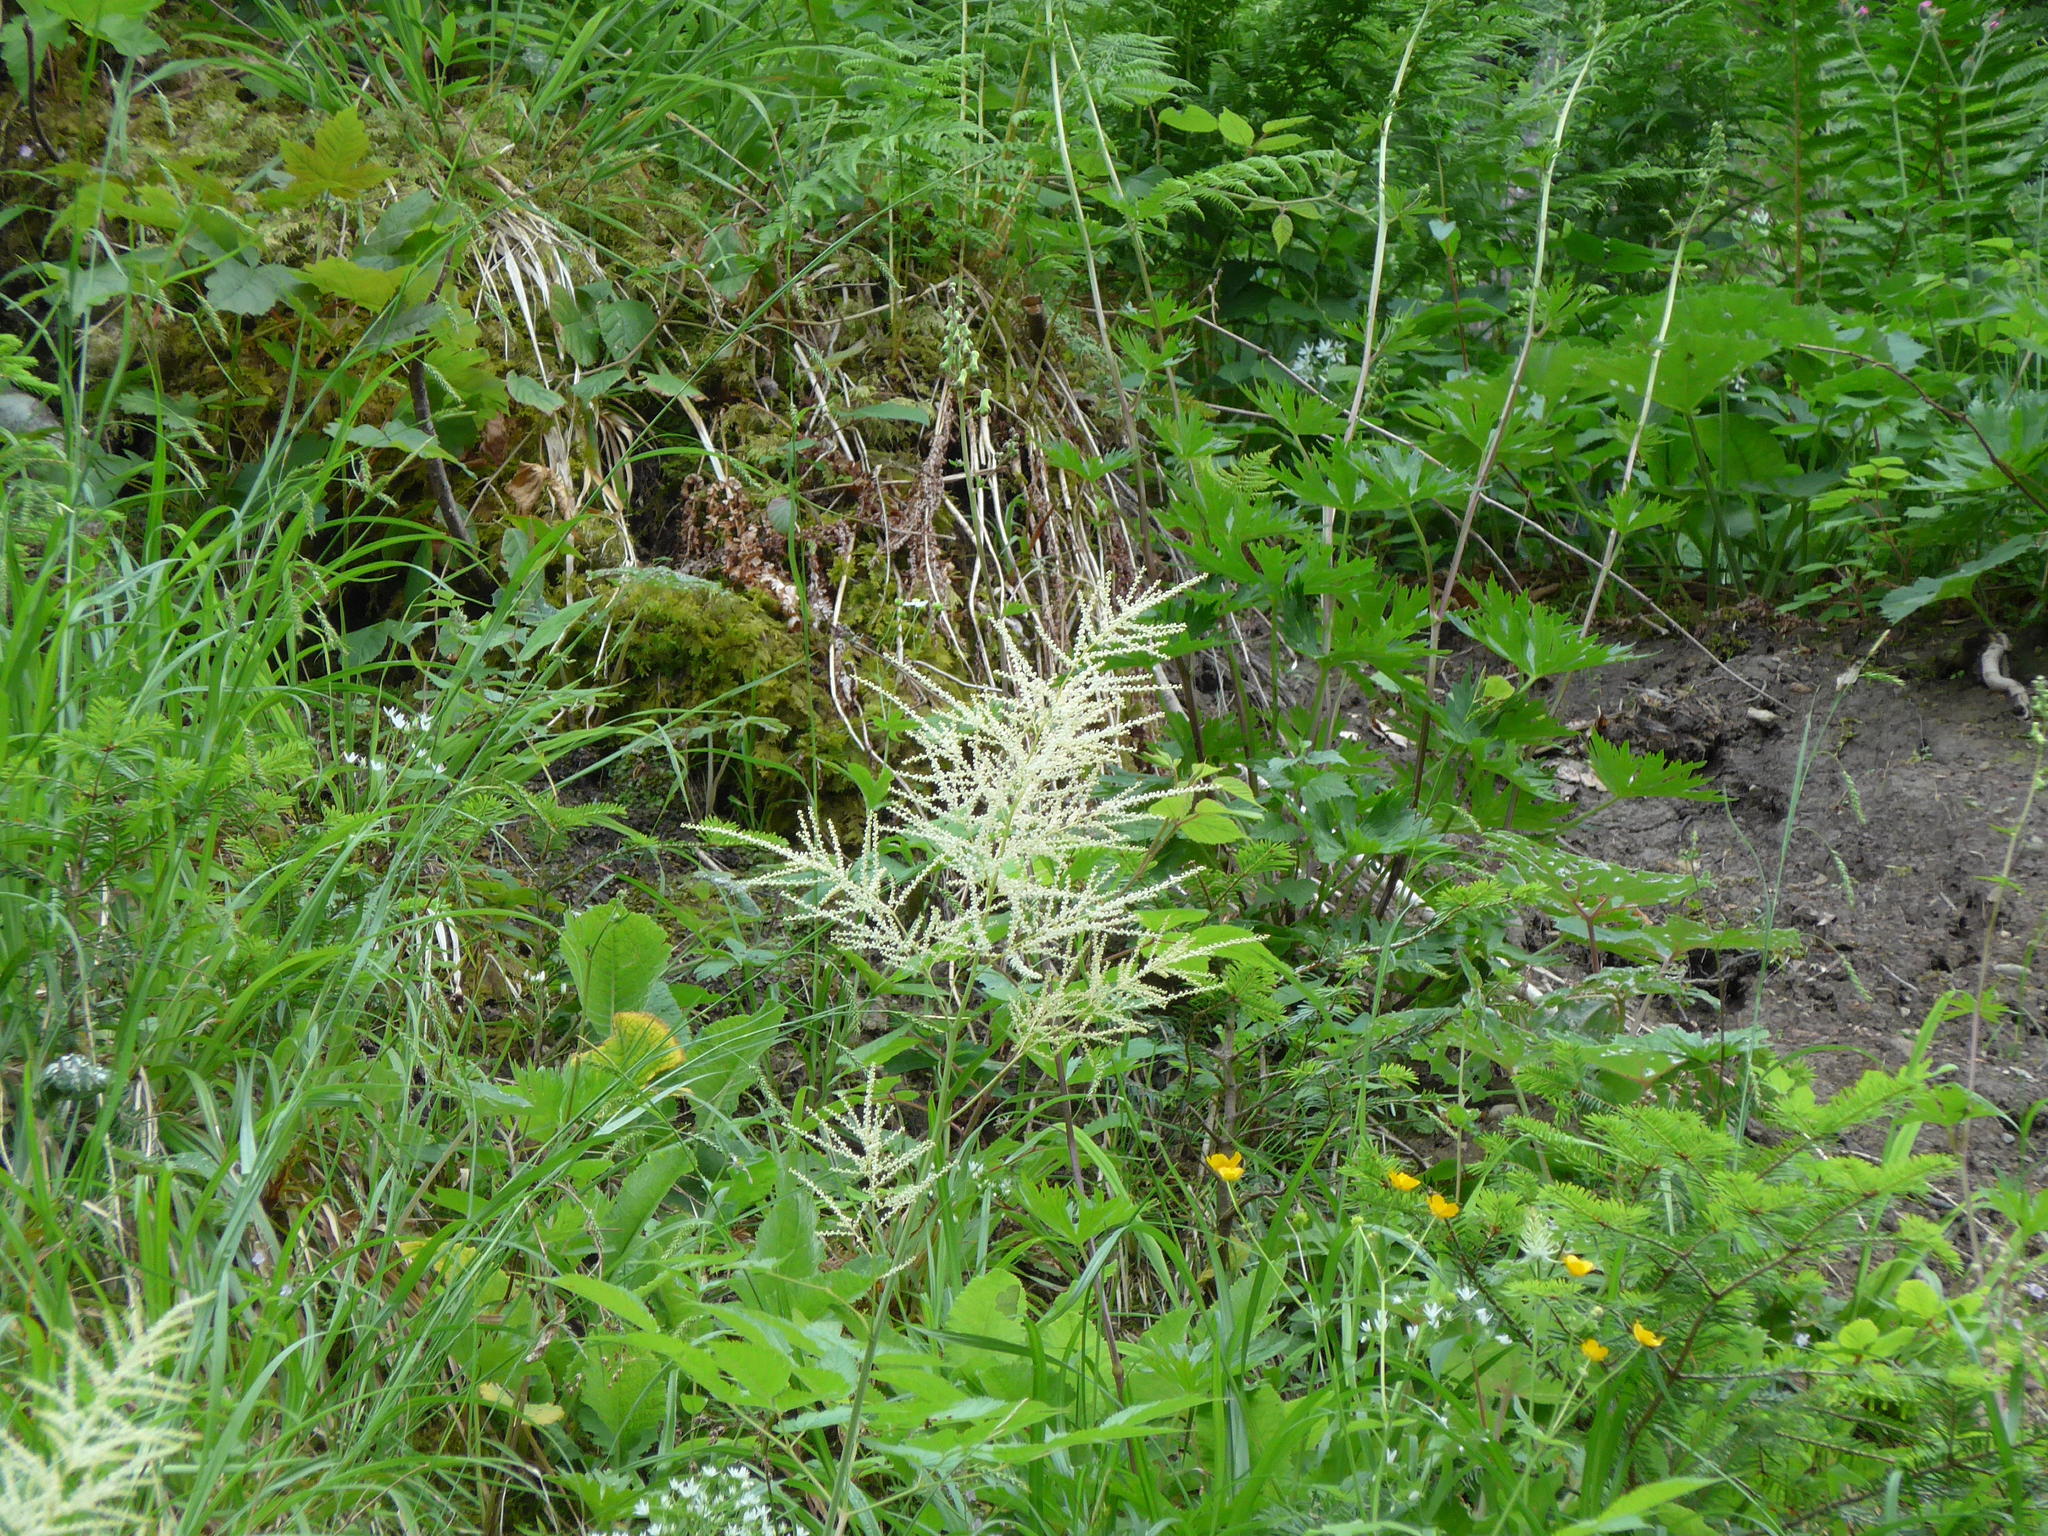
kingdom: Plantae
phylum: Tracheophyta
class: Magnoliopsida
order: Rosales
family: Rosaceae
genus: Aruncus
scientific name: Aruncus dioicus
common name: Buck's-beard
